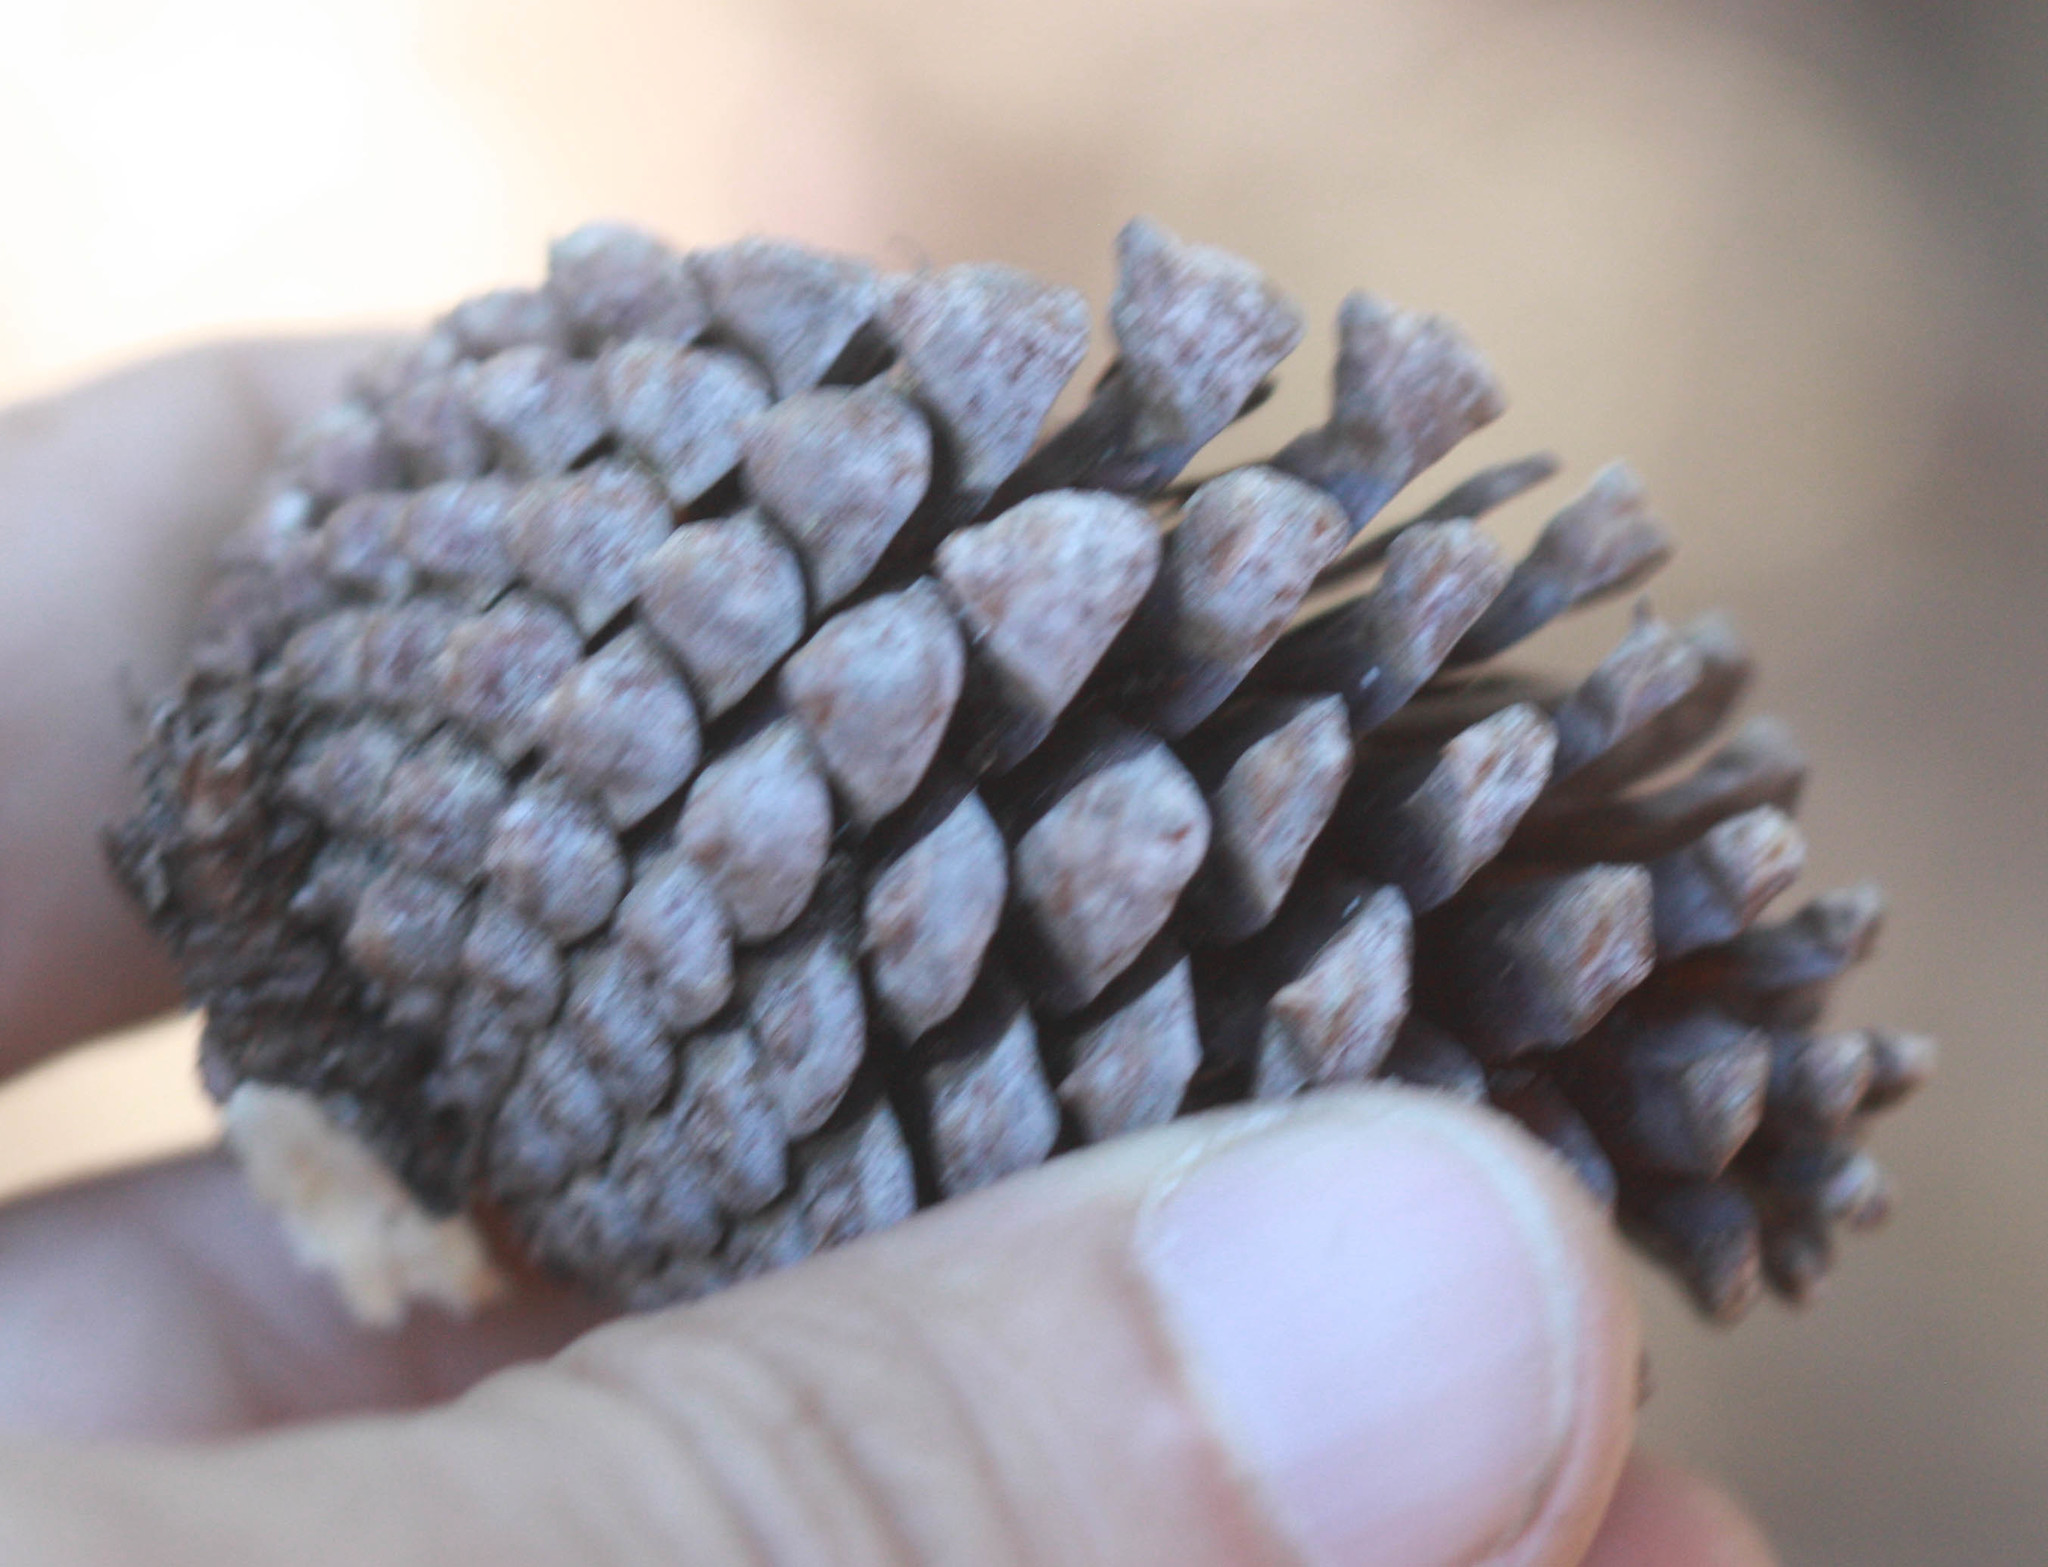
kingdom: Plantae
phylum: Tracheophyta
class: Pinopsida
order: Pinales
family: Pinaceae
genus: Pinus
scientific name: Pinus muricata
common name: Bishop pine
